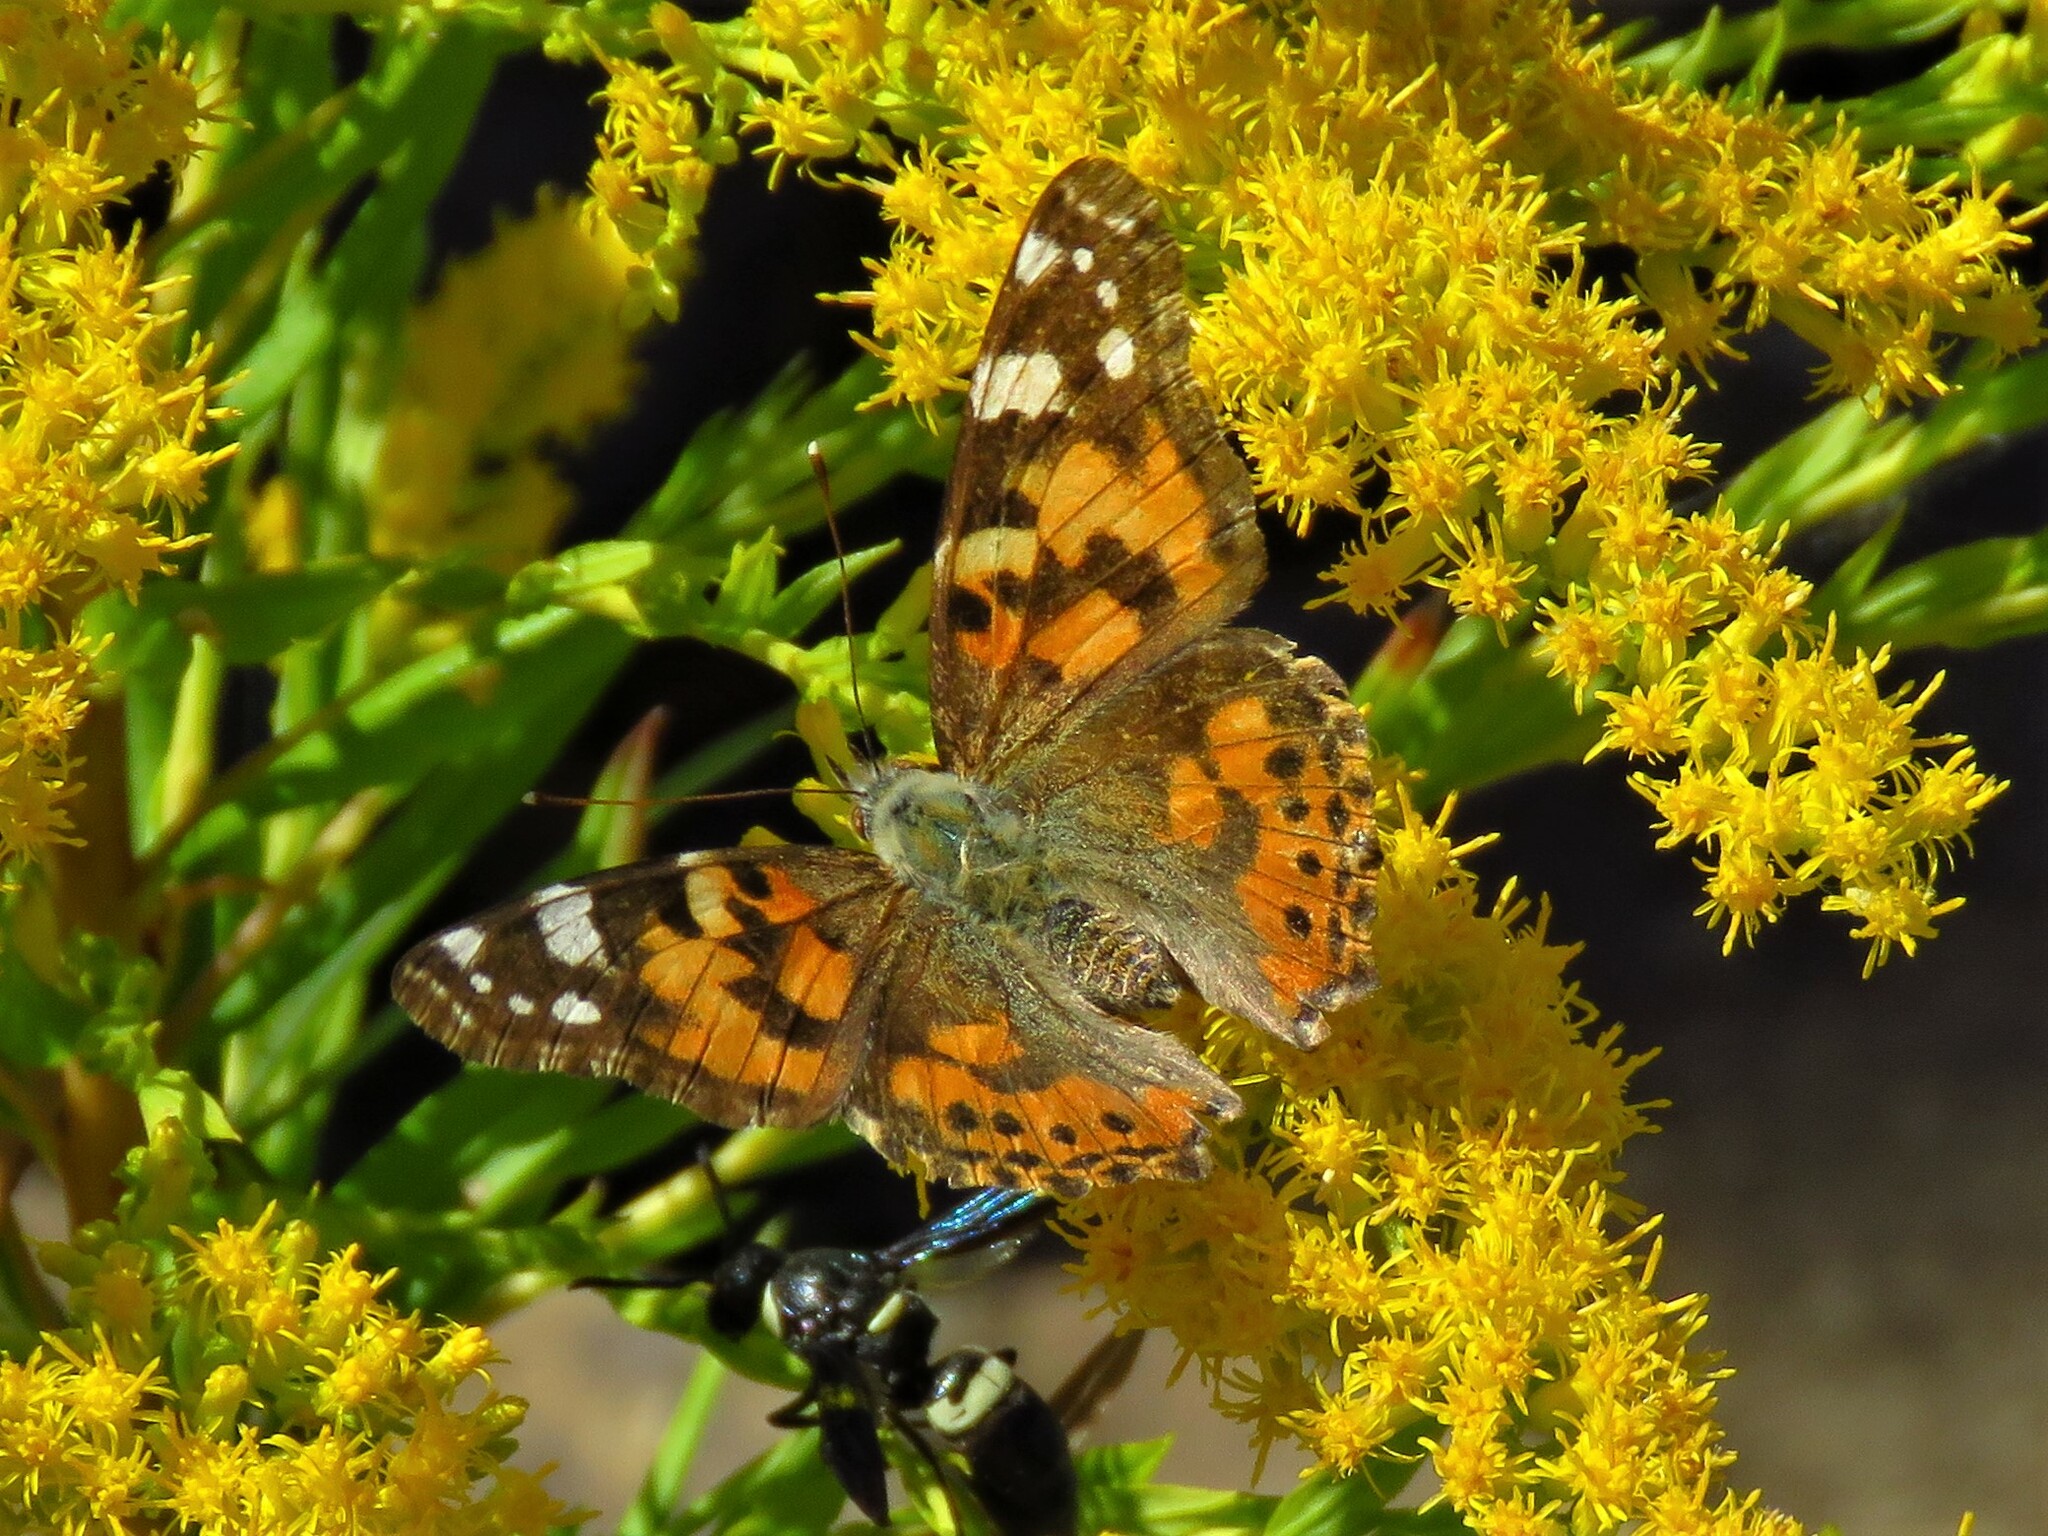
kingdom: Animalia
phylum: Arthropoda
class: Insecta
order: Lepidoptera
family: Nymphalidae
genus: Vanessa
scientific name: Vanessa cardui
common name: Painted lady
